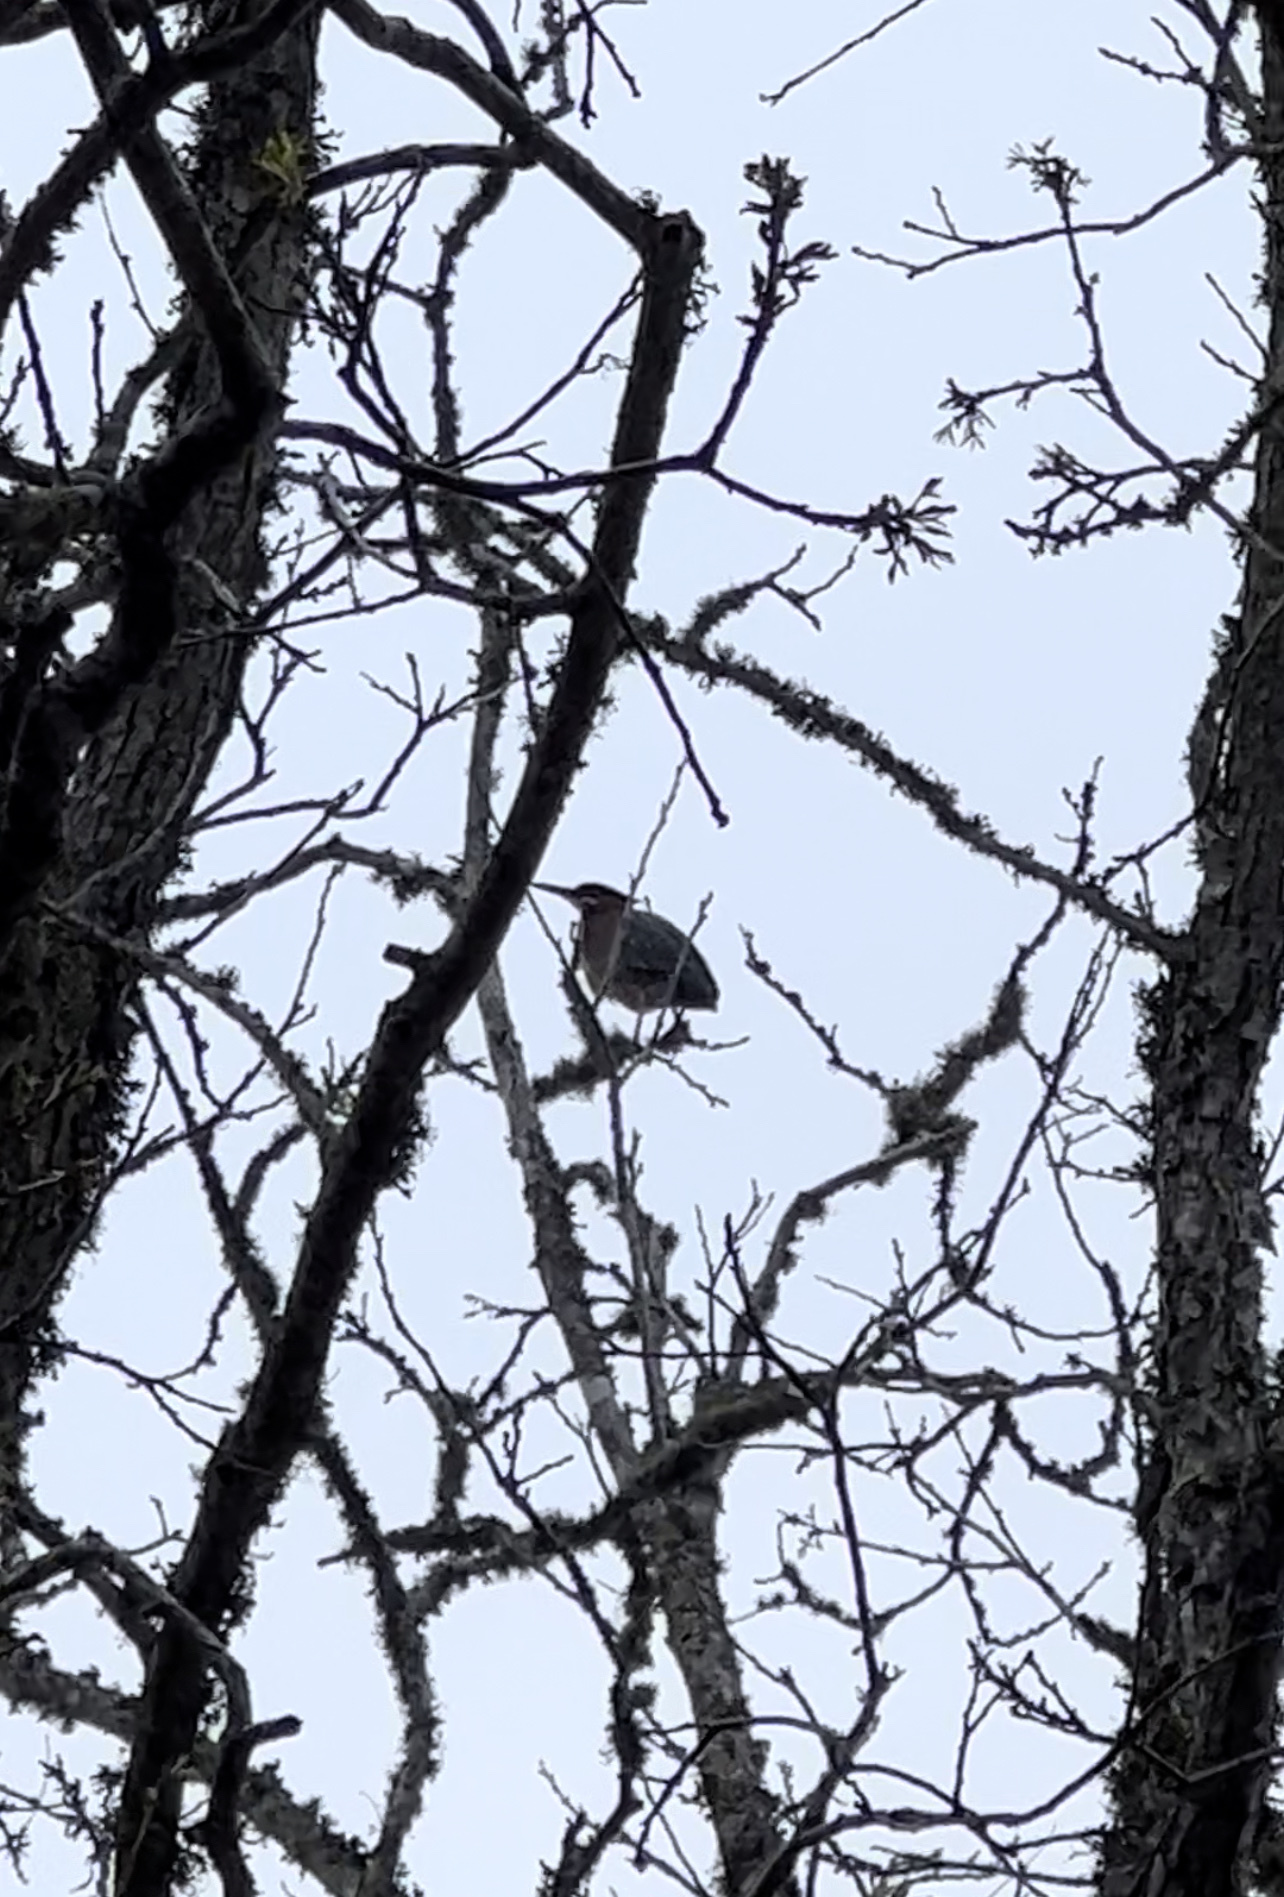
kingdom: Animalia
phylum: Chordata
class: Aves
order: Pelecaniformes
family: Ardeidae
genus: Butorides
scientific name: Butorides virescens
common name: Green heron
